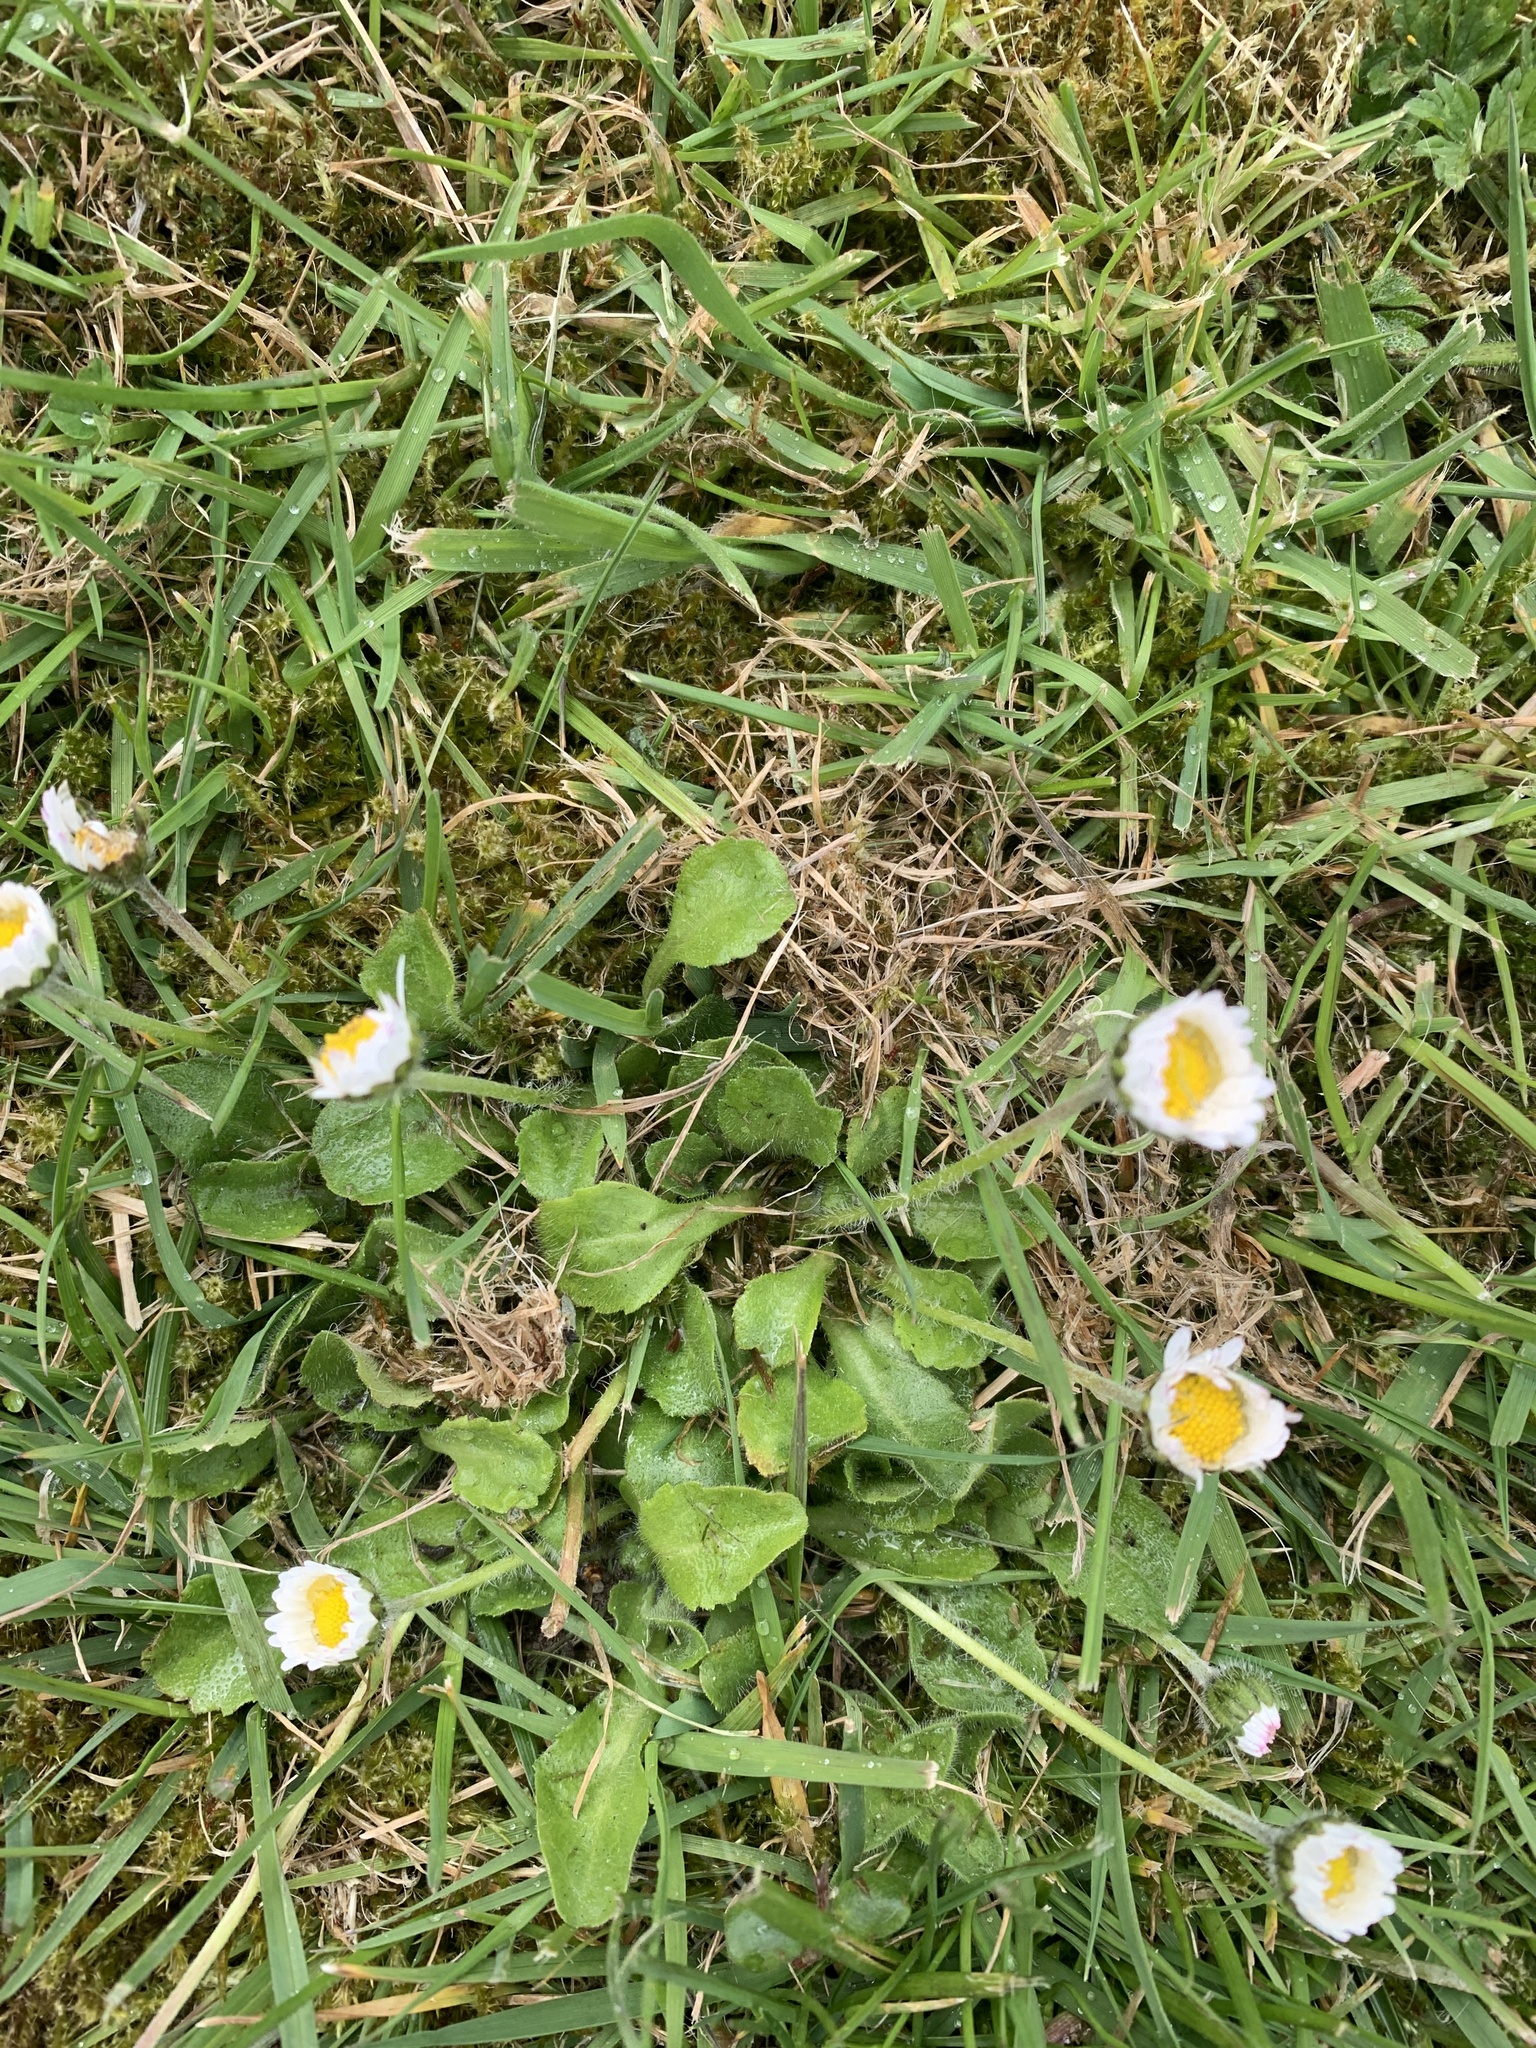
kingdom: Plantae
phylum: Tracheophyta
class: Magnoliopsida
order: Asterales
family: Asteraceae
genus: Bellis
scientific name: Bellis perennis
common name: Lawndaisy
